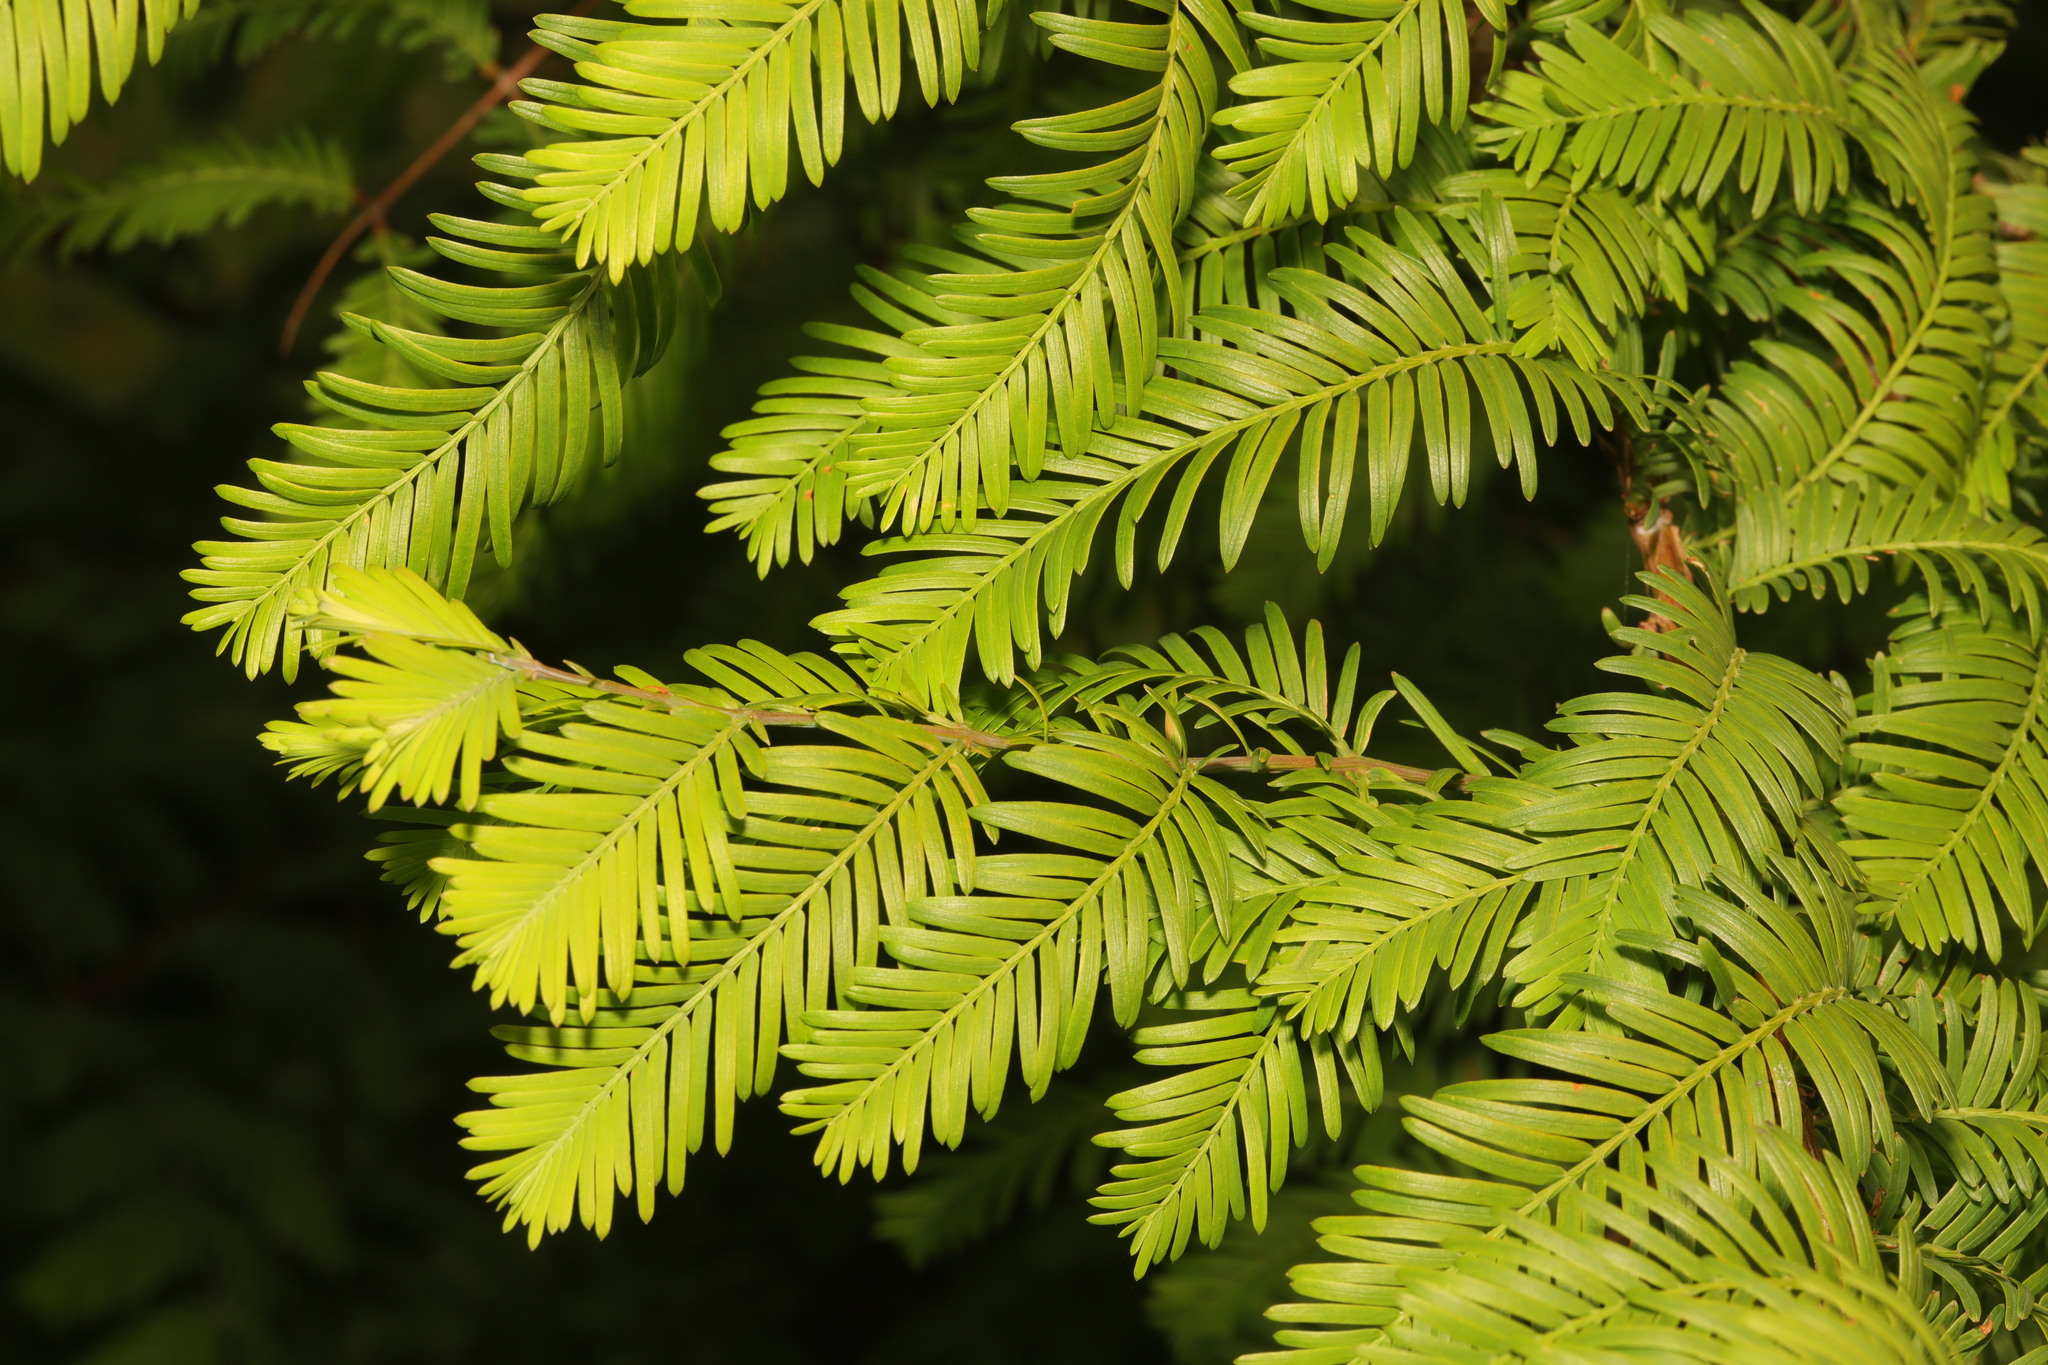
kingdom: Plantae
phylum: Tracheophyta
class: Pinopsida
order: Pinales
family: Cupressaceae
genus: Metasequoia
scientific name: Metasequoia glyptostroboides
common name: Dawn redwood
